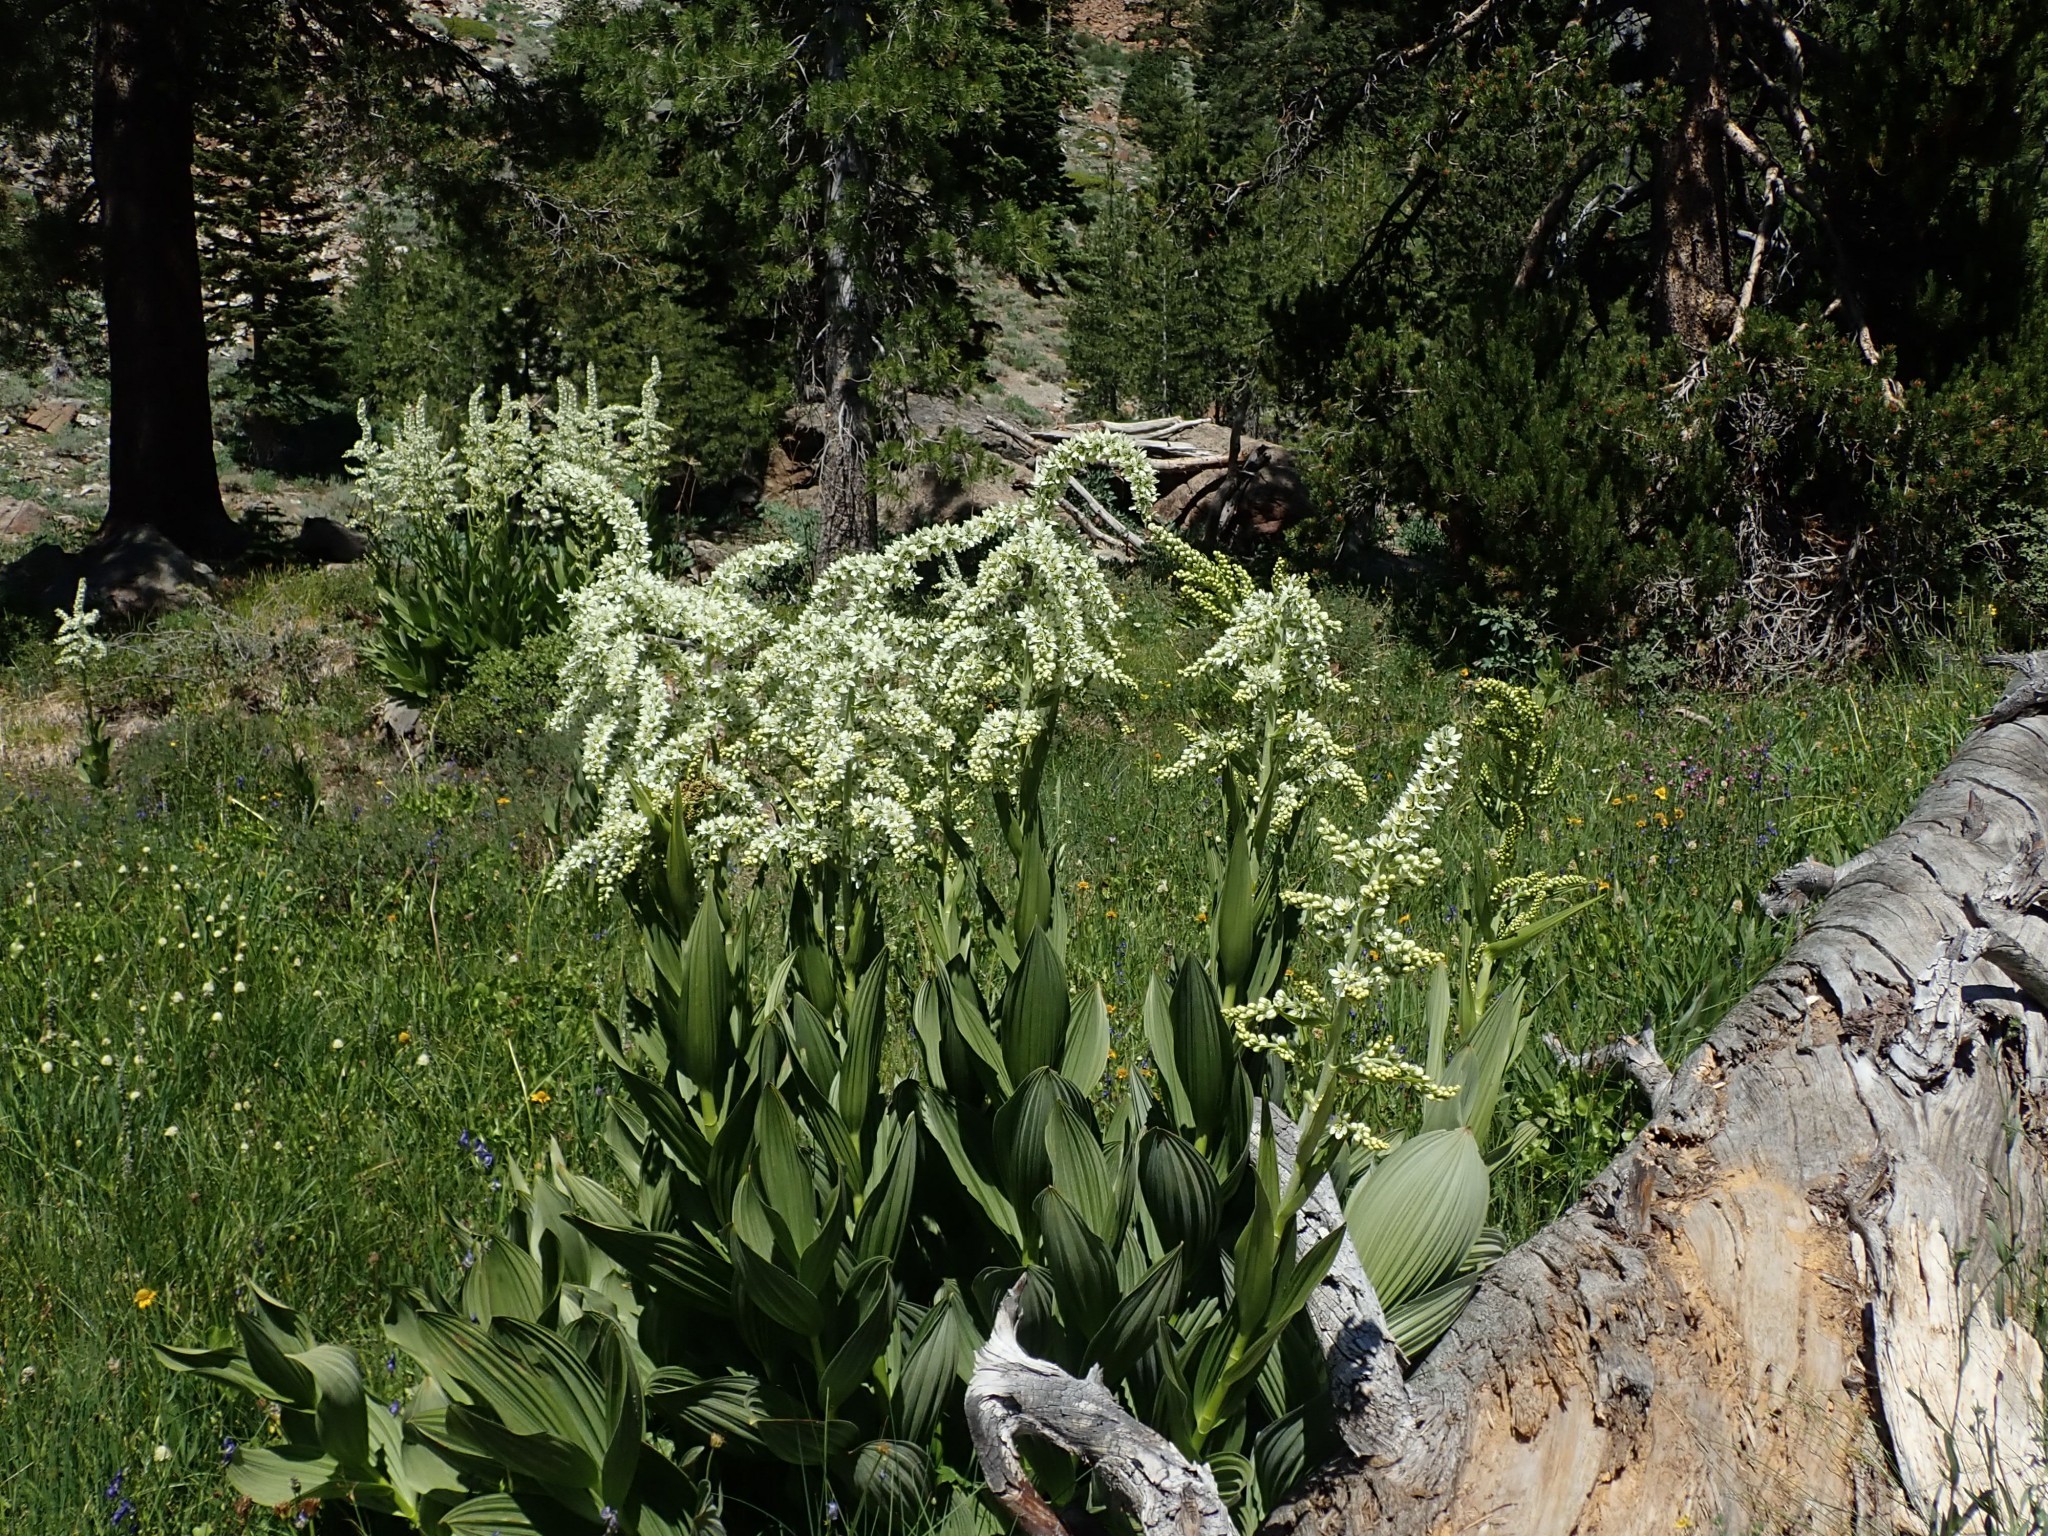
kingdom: Plantae
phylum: Tracheophyta
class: Liliopsida
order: Liliales
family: Melanthiaceae
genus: Veratrum
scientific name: Veratrum californicum
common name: California veratrum
